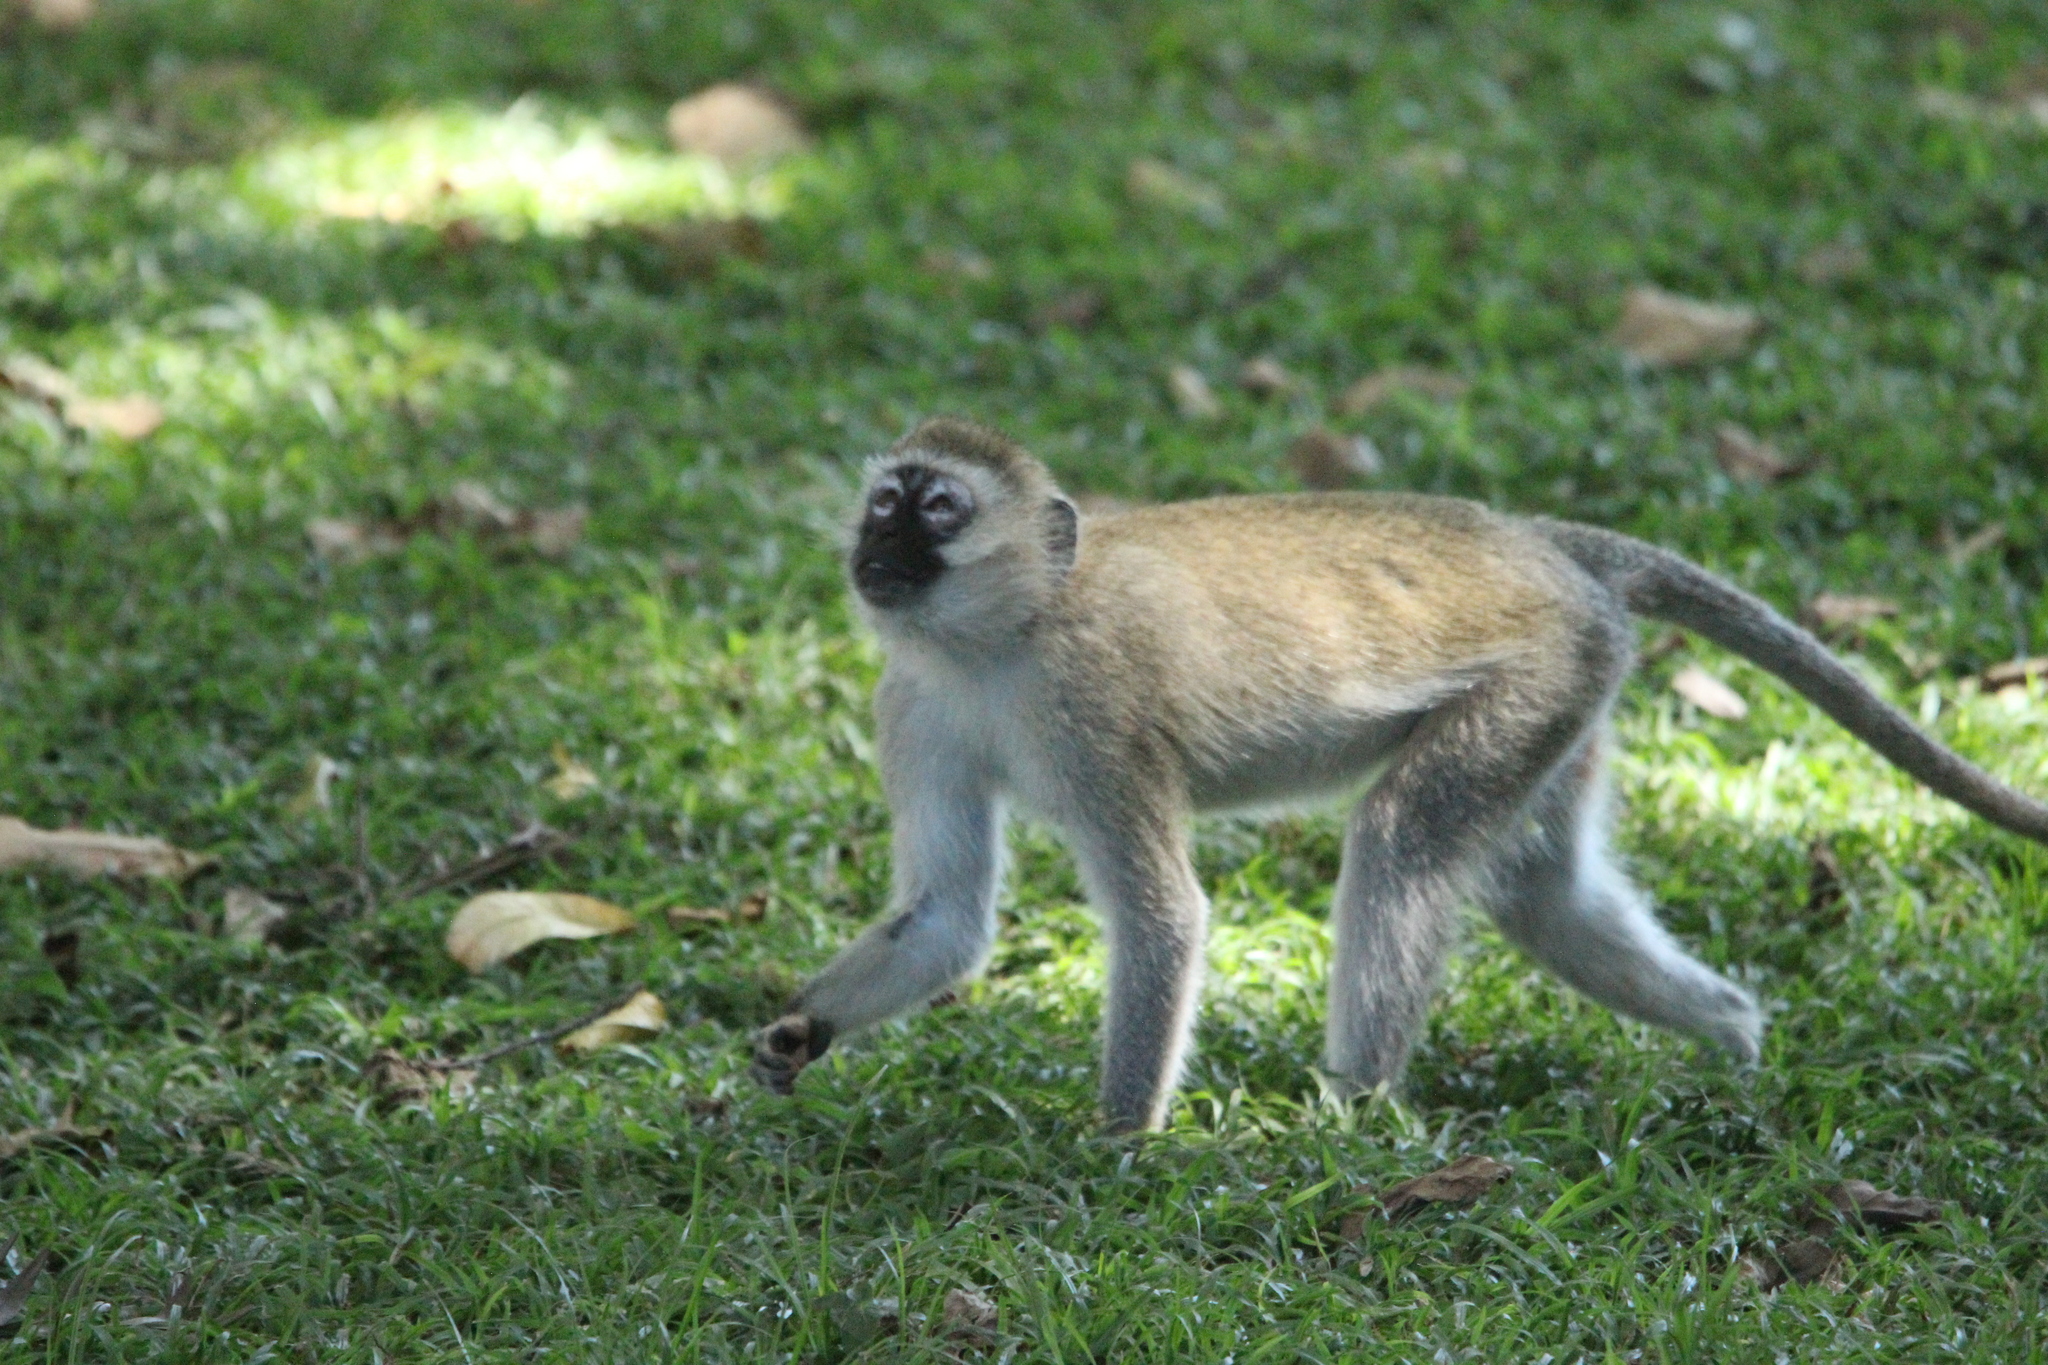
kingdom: Animalia
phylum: Chordata
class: Mammalia
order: Primates
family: Cercopithecidae
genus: Chlorocebus
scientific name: Chlorocebus pygerythrus
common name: Vervet monkey
